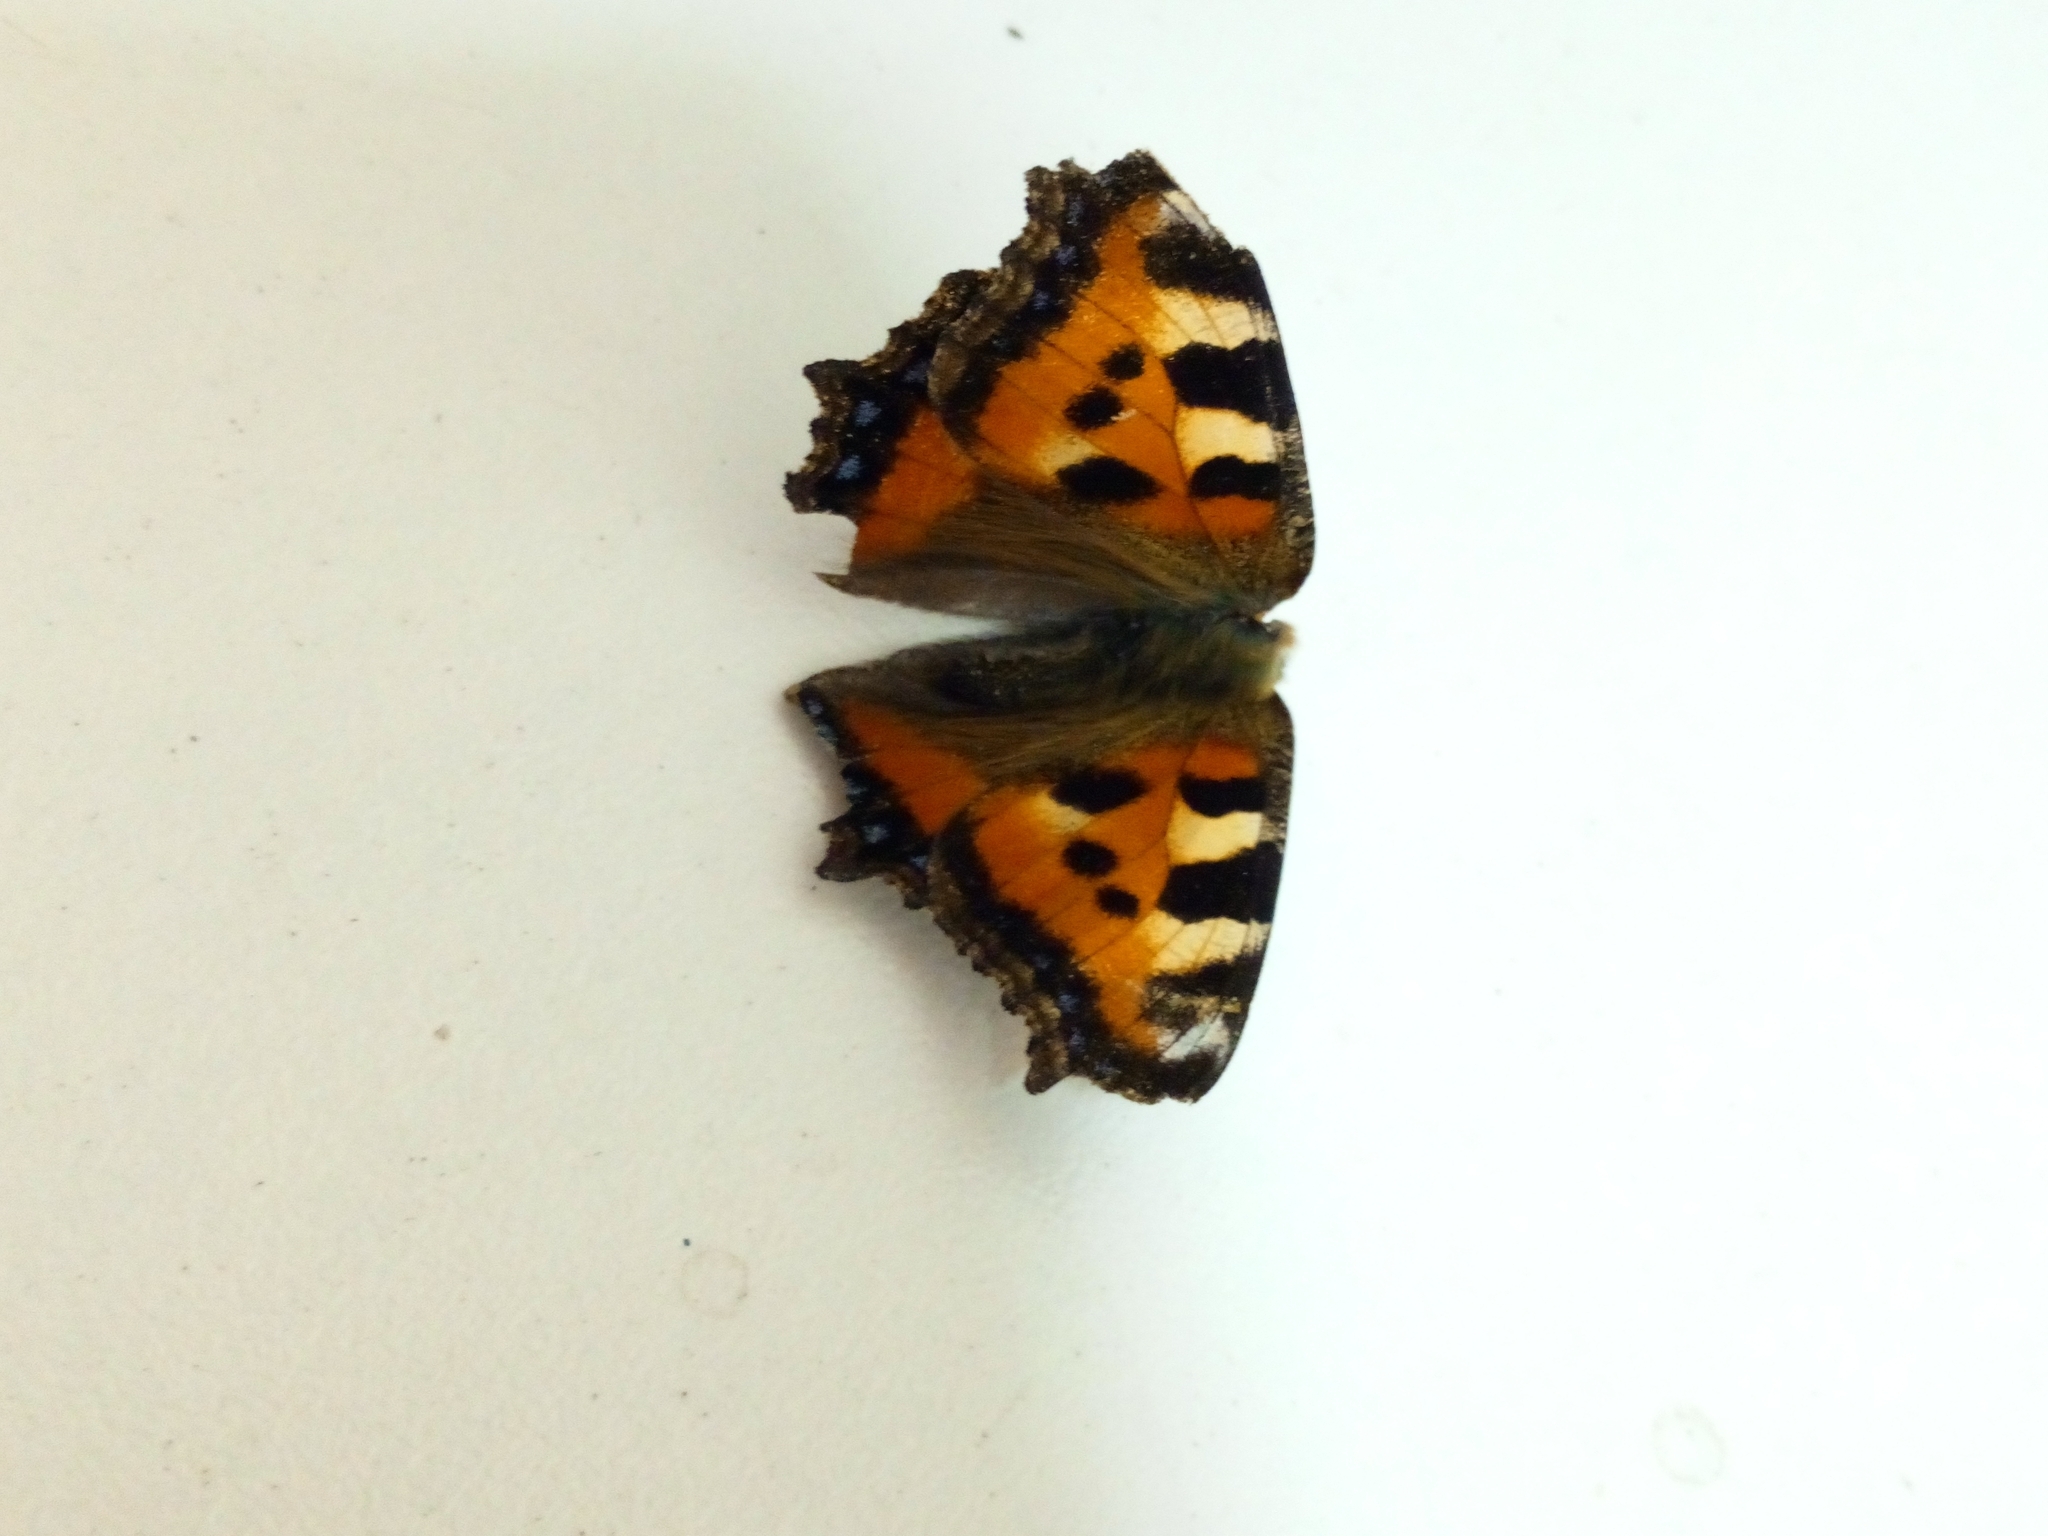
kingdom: Animalia
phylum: Arthropoda
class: Insecta
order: Lepidoptera
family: Nymphalidae
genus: Aglais
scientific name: Aglais urticae
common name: Small tortoiseshell
